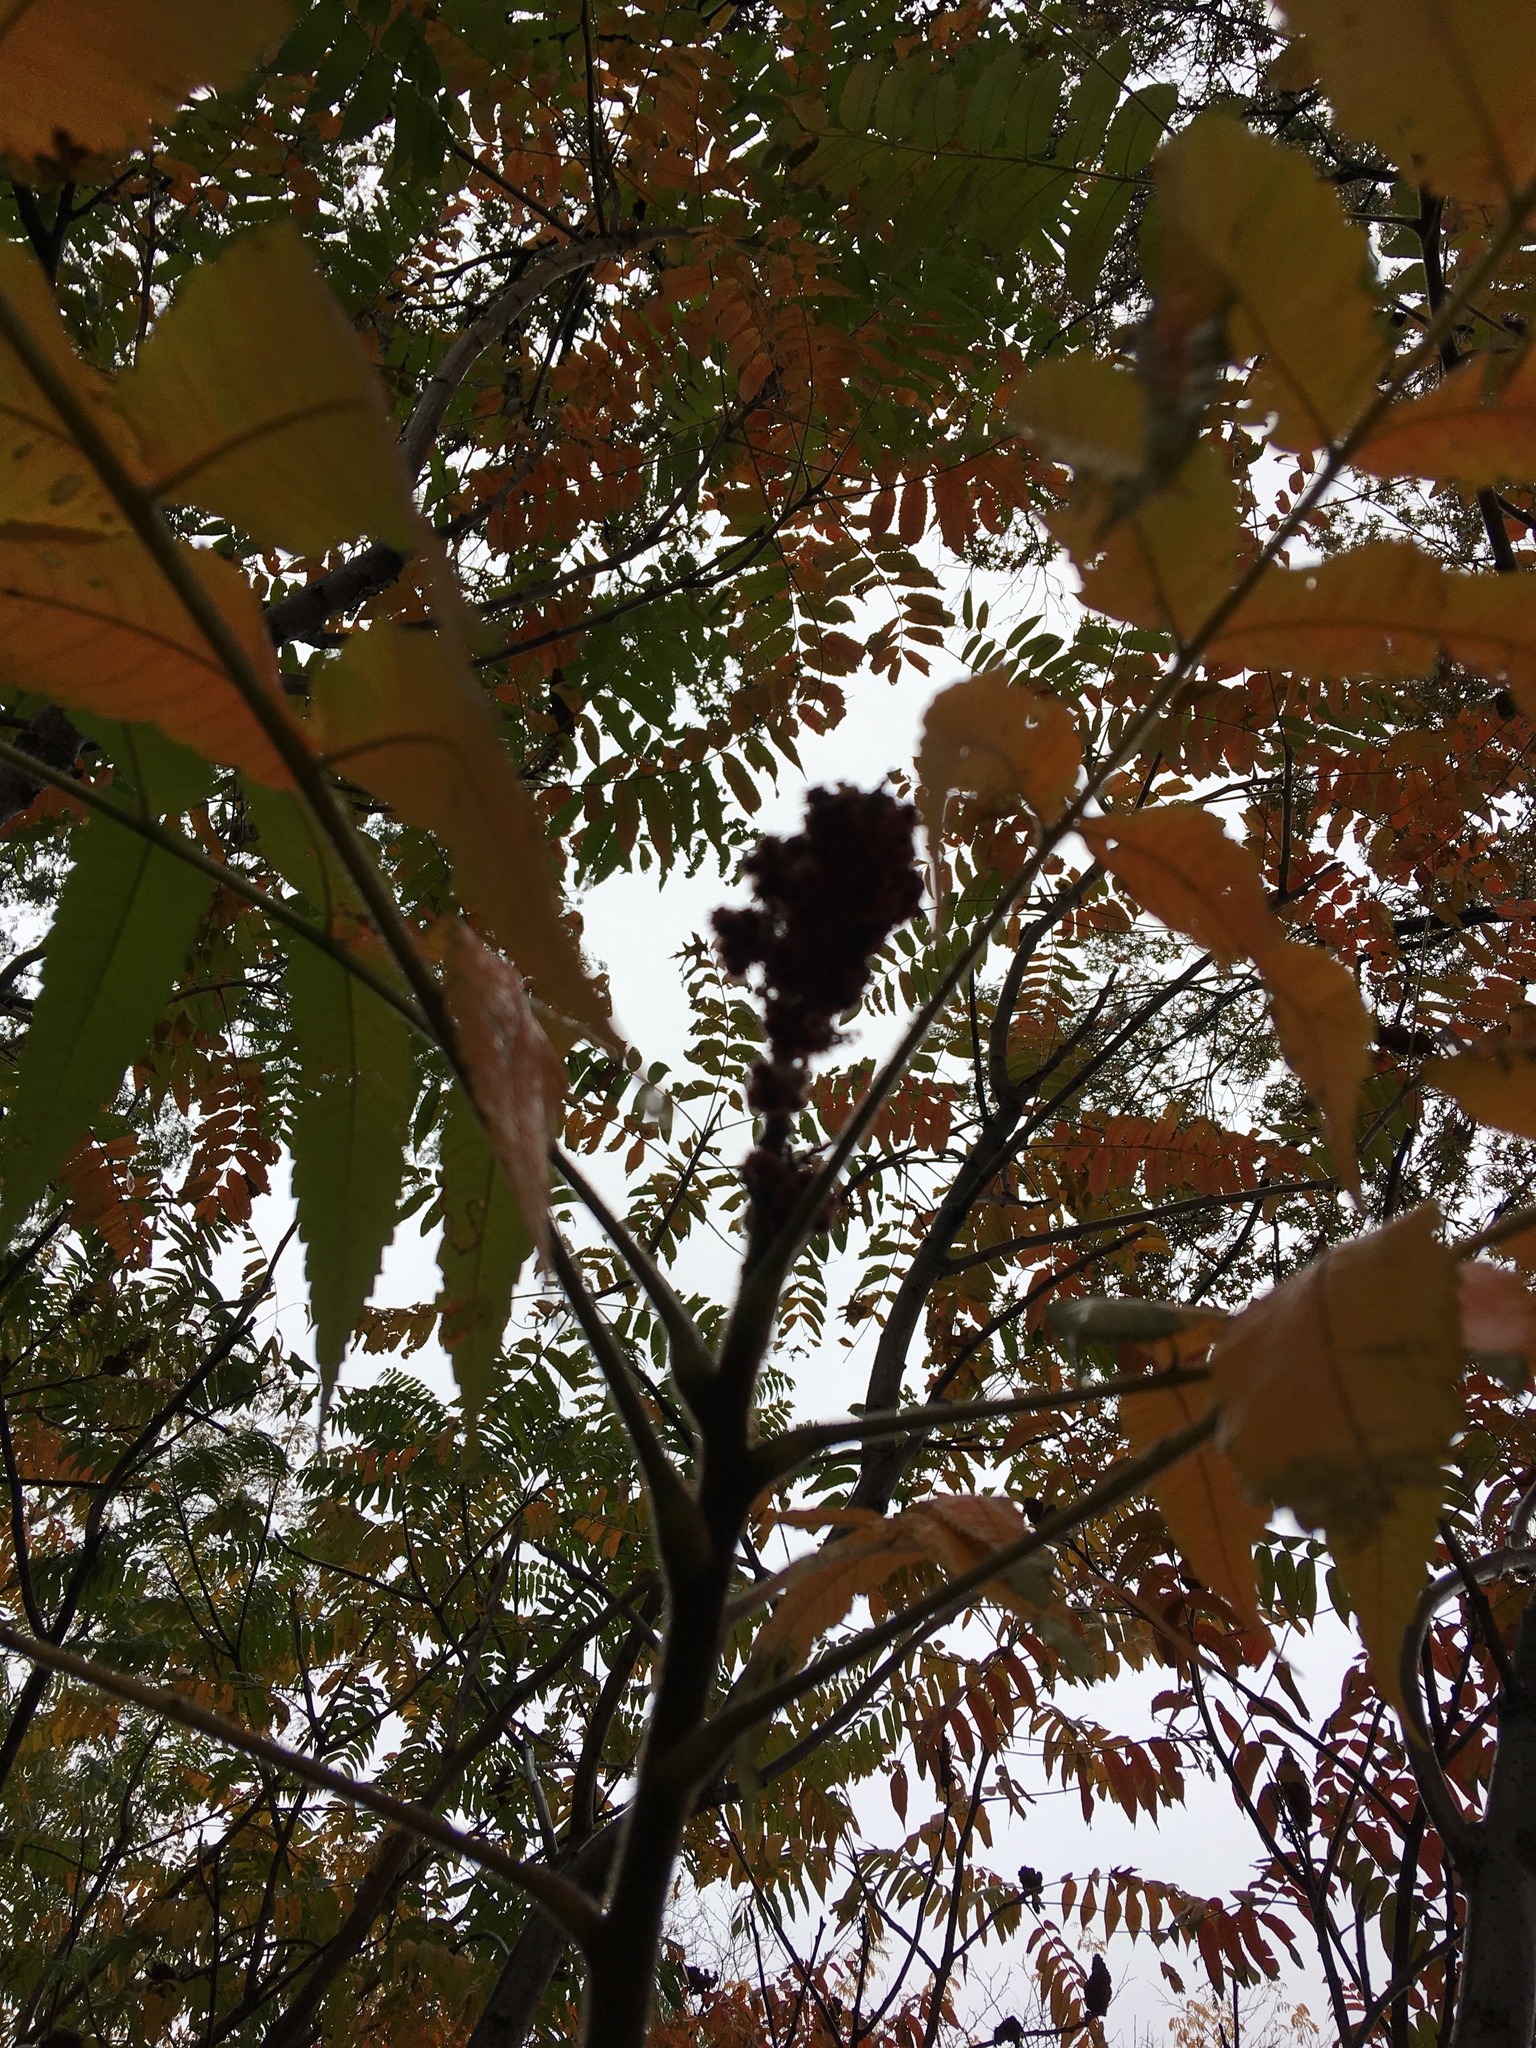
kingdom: Plantae
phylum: Tracheophyta
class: Magnoliopsida
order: Sapindales
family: Anacardiaceae
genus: Rhus
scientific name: Rhus typhina
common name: Staghorn sumac
